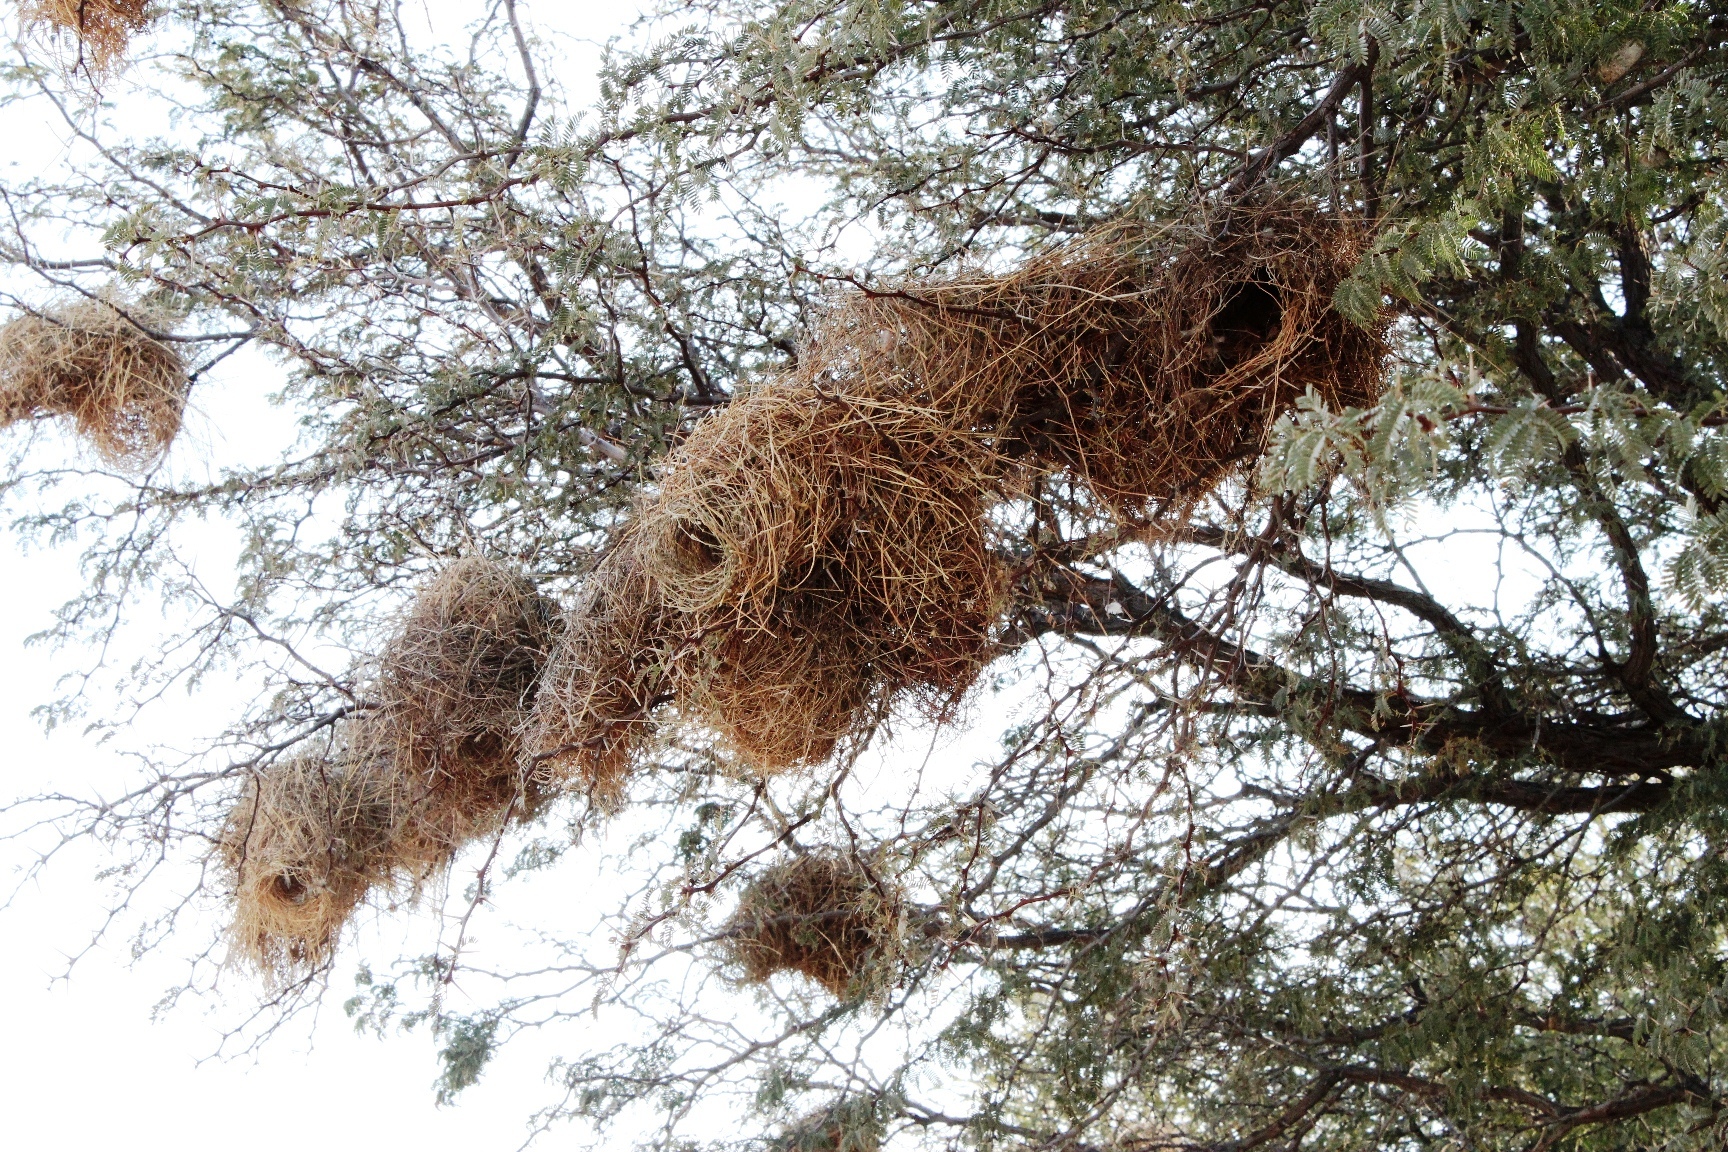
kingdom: Animalia
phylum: Chordata
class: Aves
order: Passeriformes
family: Passeridae
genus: Plocepasser
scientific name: Plocepasser mahali
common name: White-browed sparrow-weaver
